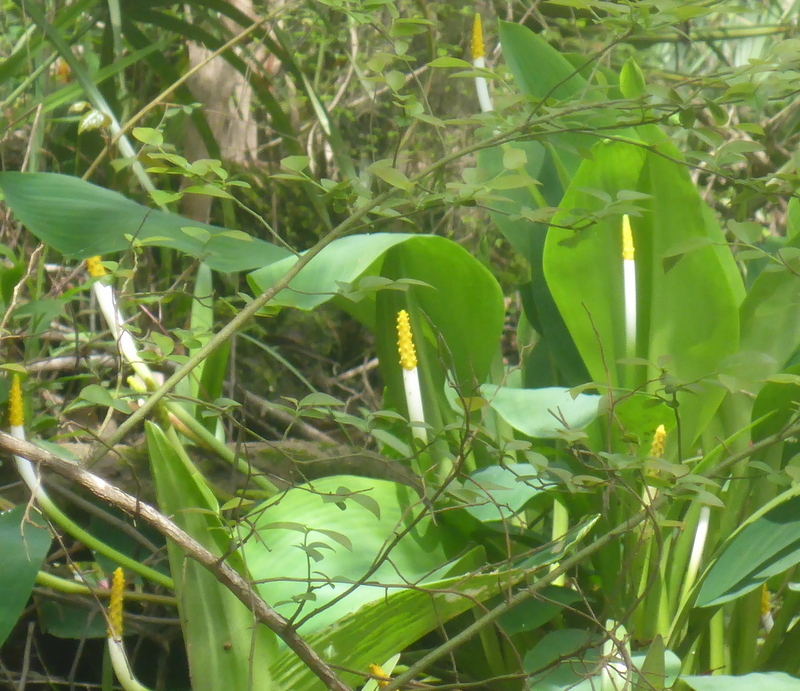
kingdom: Plantae
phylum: Tracheophyta
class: Liliopsida
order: Alismatales
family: Araceae
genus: Orontium
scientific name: Orontium aquaticum
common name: Golden-club
